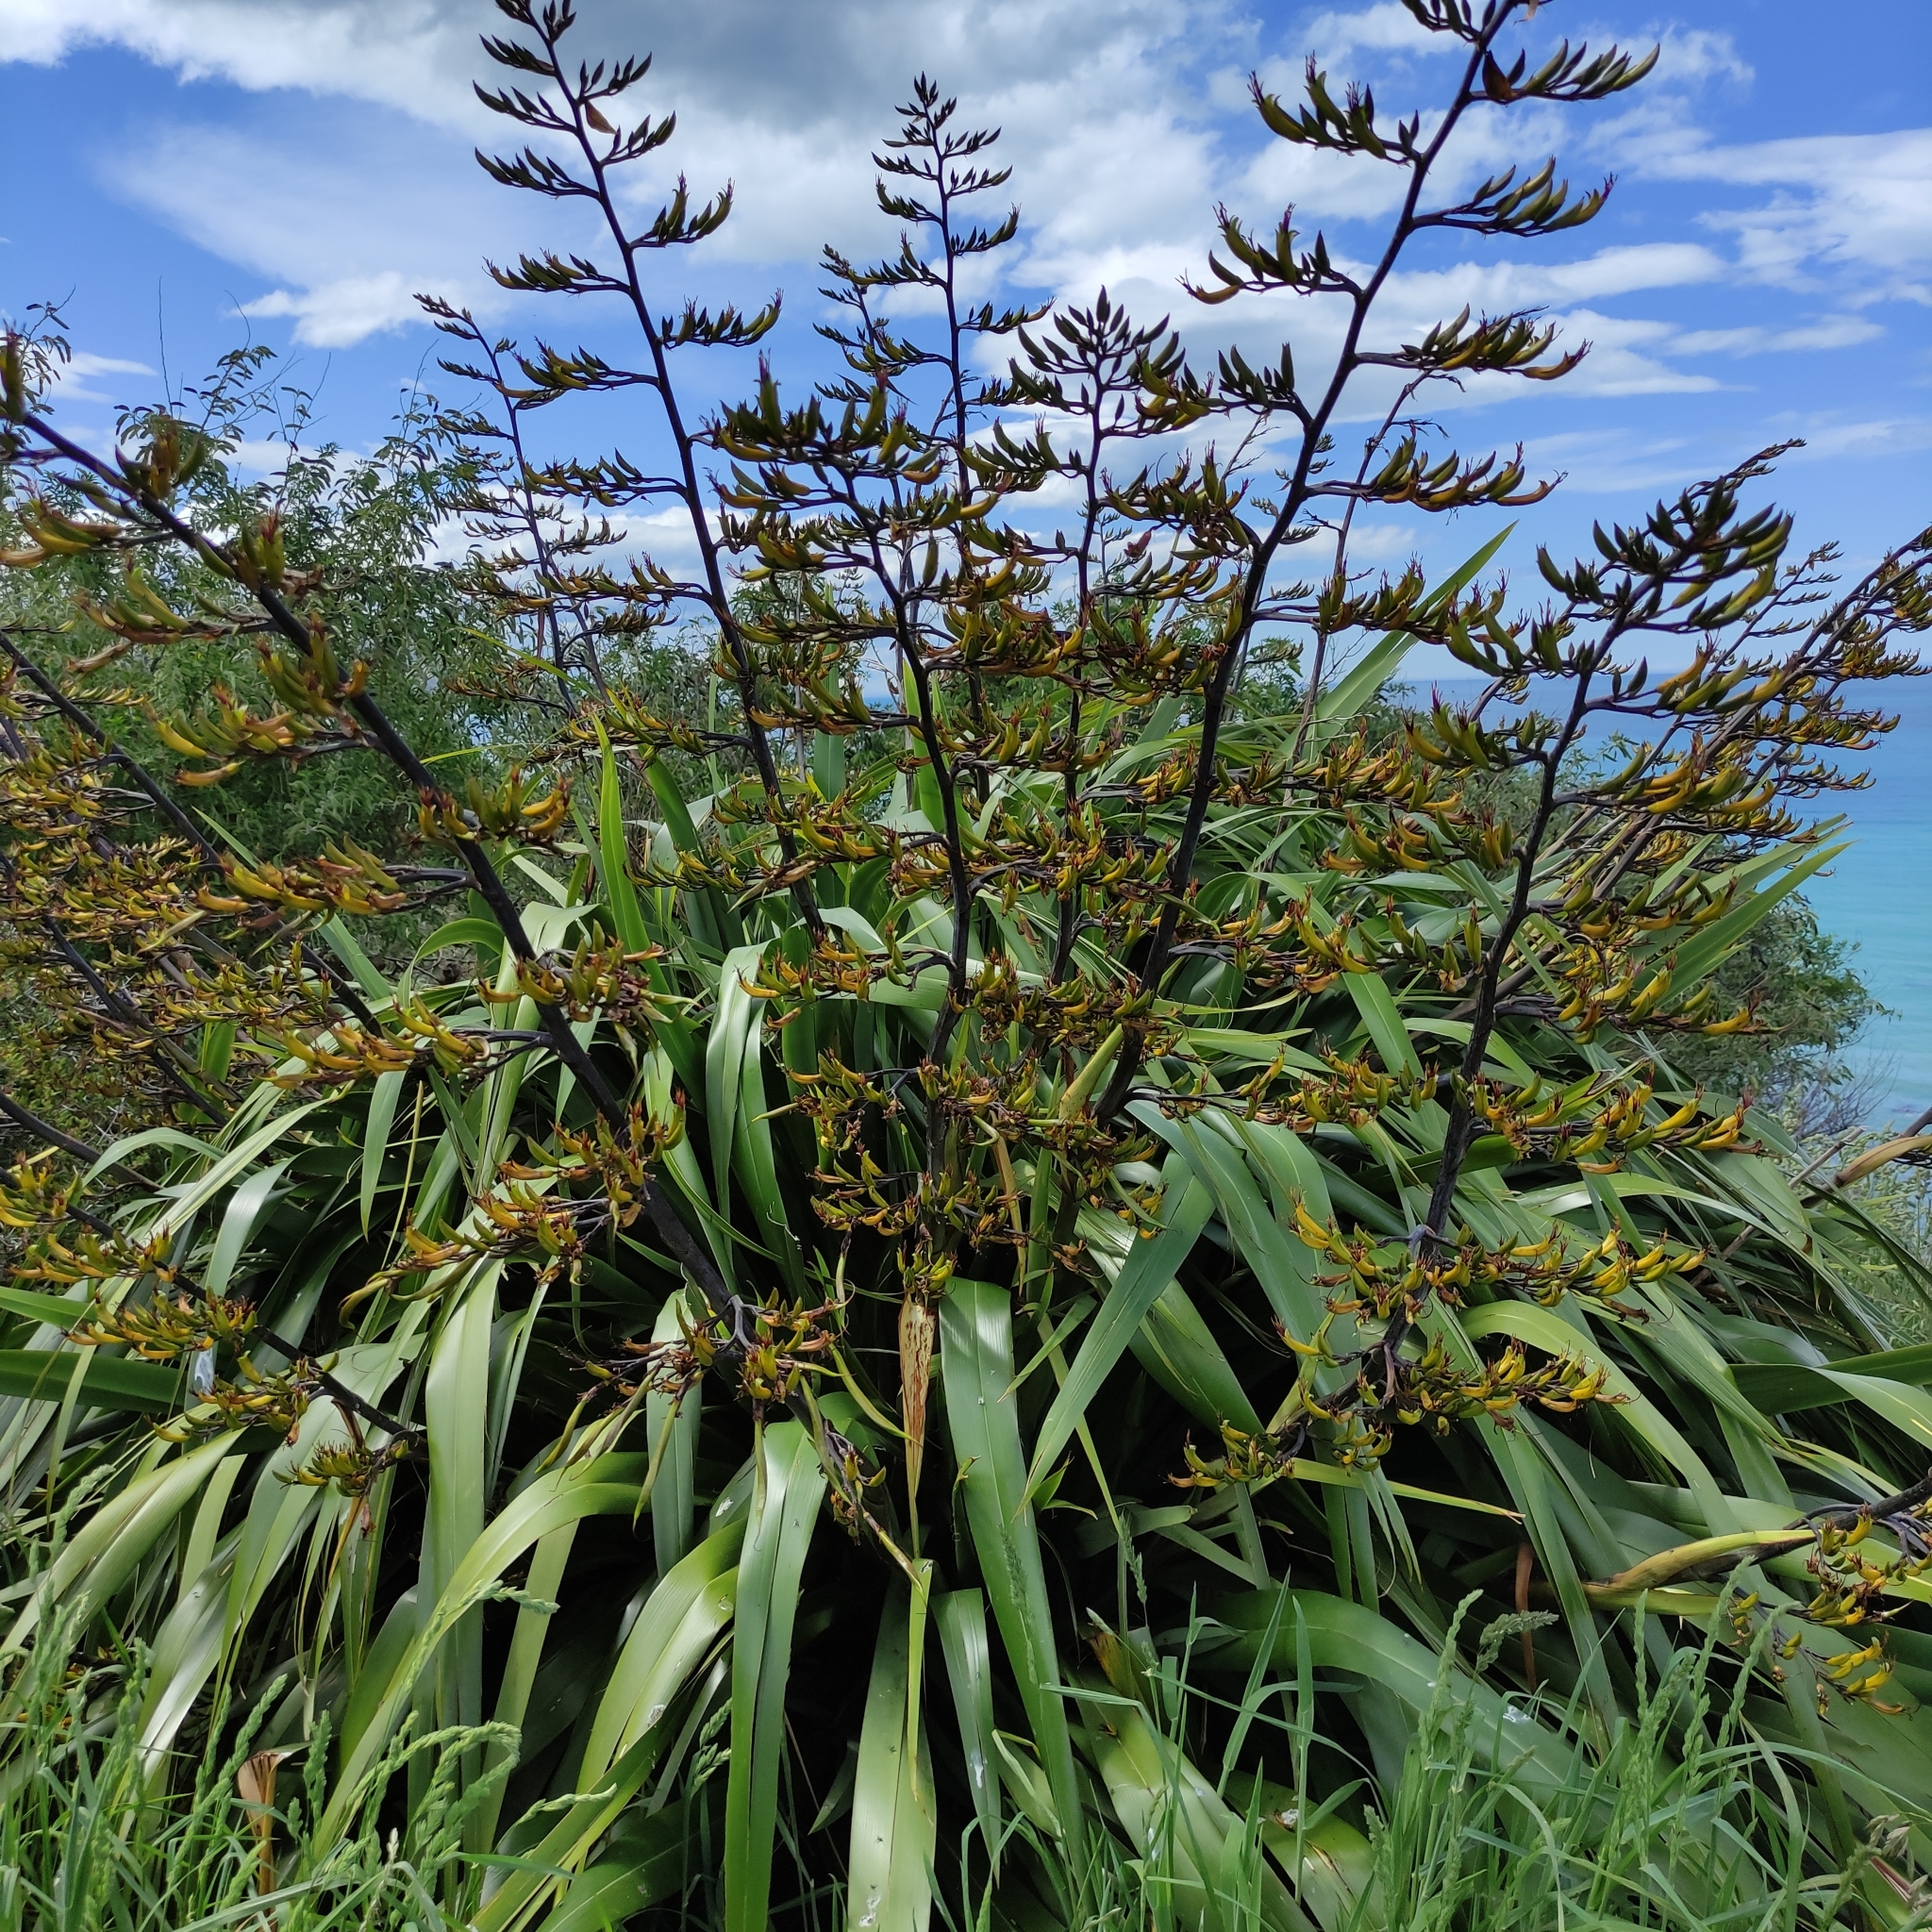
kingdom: Plantae
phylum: Tracheophyta
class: Liliopsida
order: Asparagales
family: Asphodelaceae
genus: Phormium
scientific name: Phormium tenax
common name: New zealand flax
